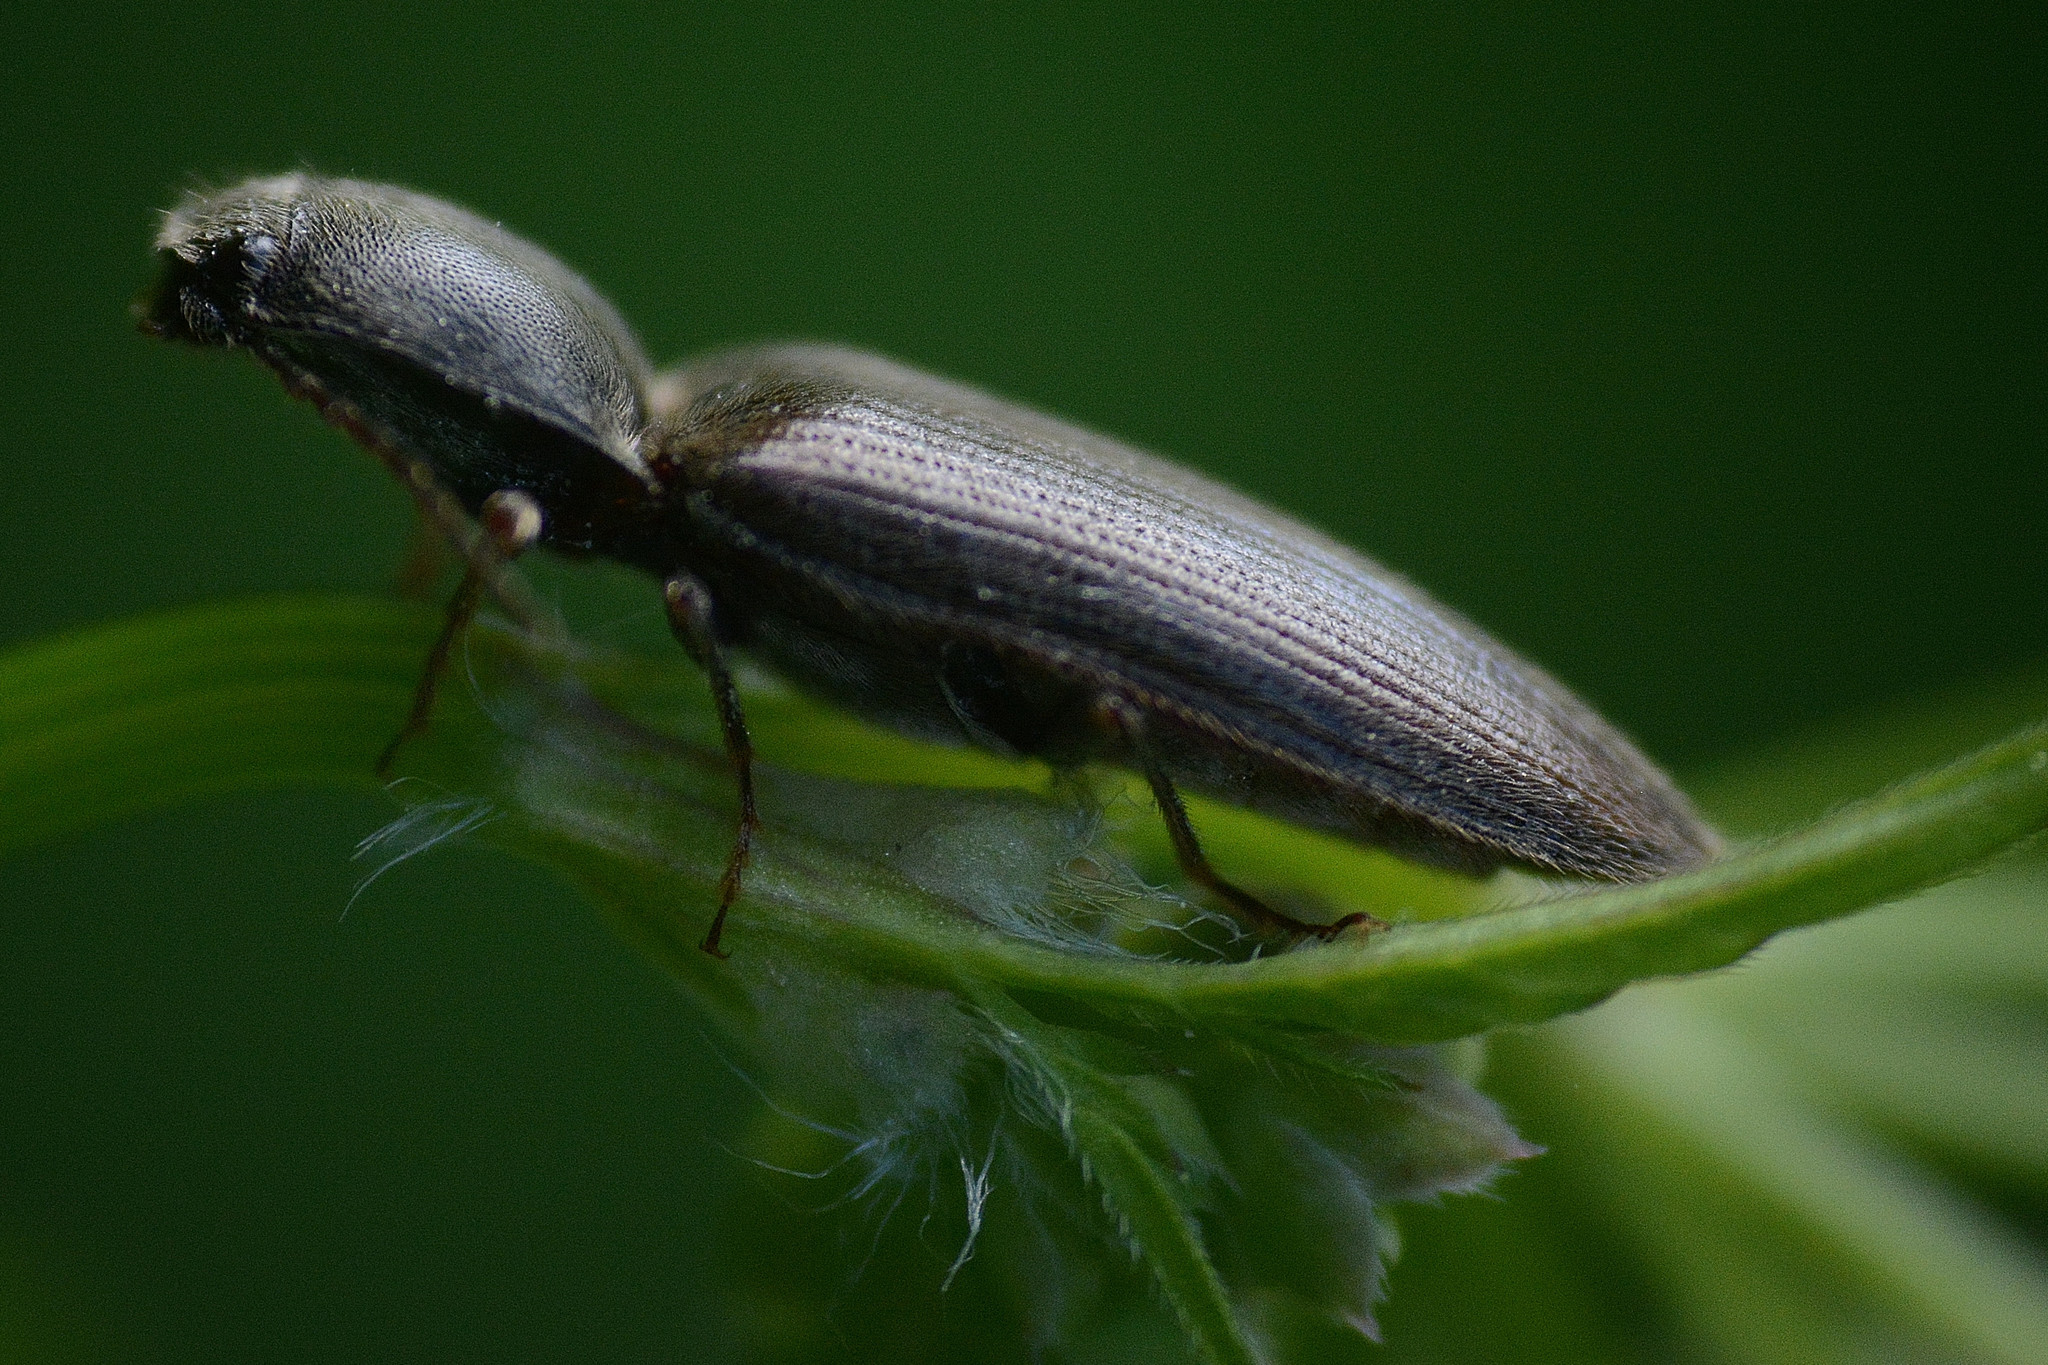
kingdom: Animalia
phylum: Arthropoda
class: Insecta
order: Coleoptera
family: Elateridae
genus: Athous
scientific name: Athous haemorrhoidalis
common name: Red-brown click beetle
